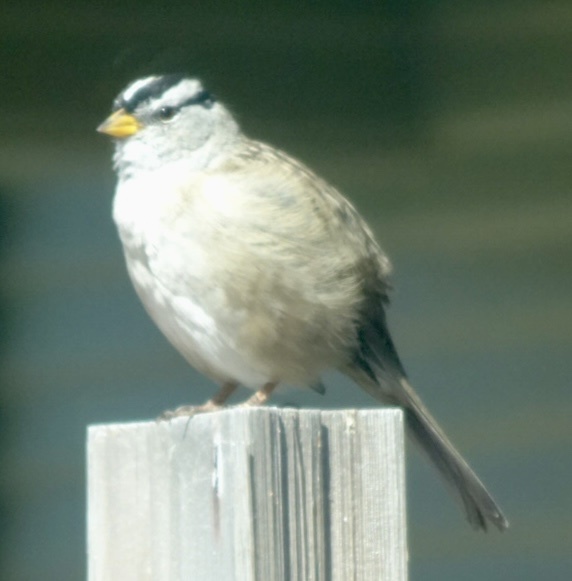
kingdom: Animalia
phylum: Chordata
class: Aves
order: Passeriformes
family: Passerellidae
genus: Zonotrichia
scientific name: Zonotrichia leucophrys
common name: White-crowned sparrow
